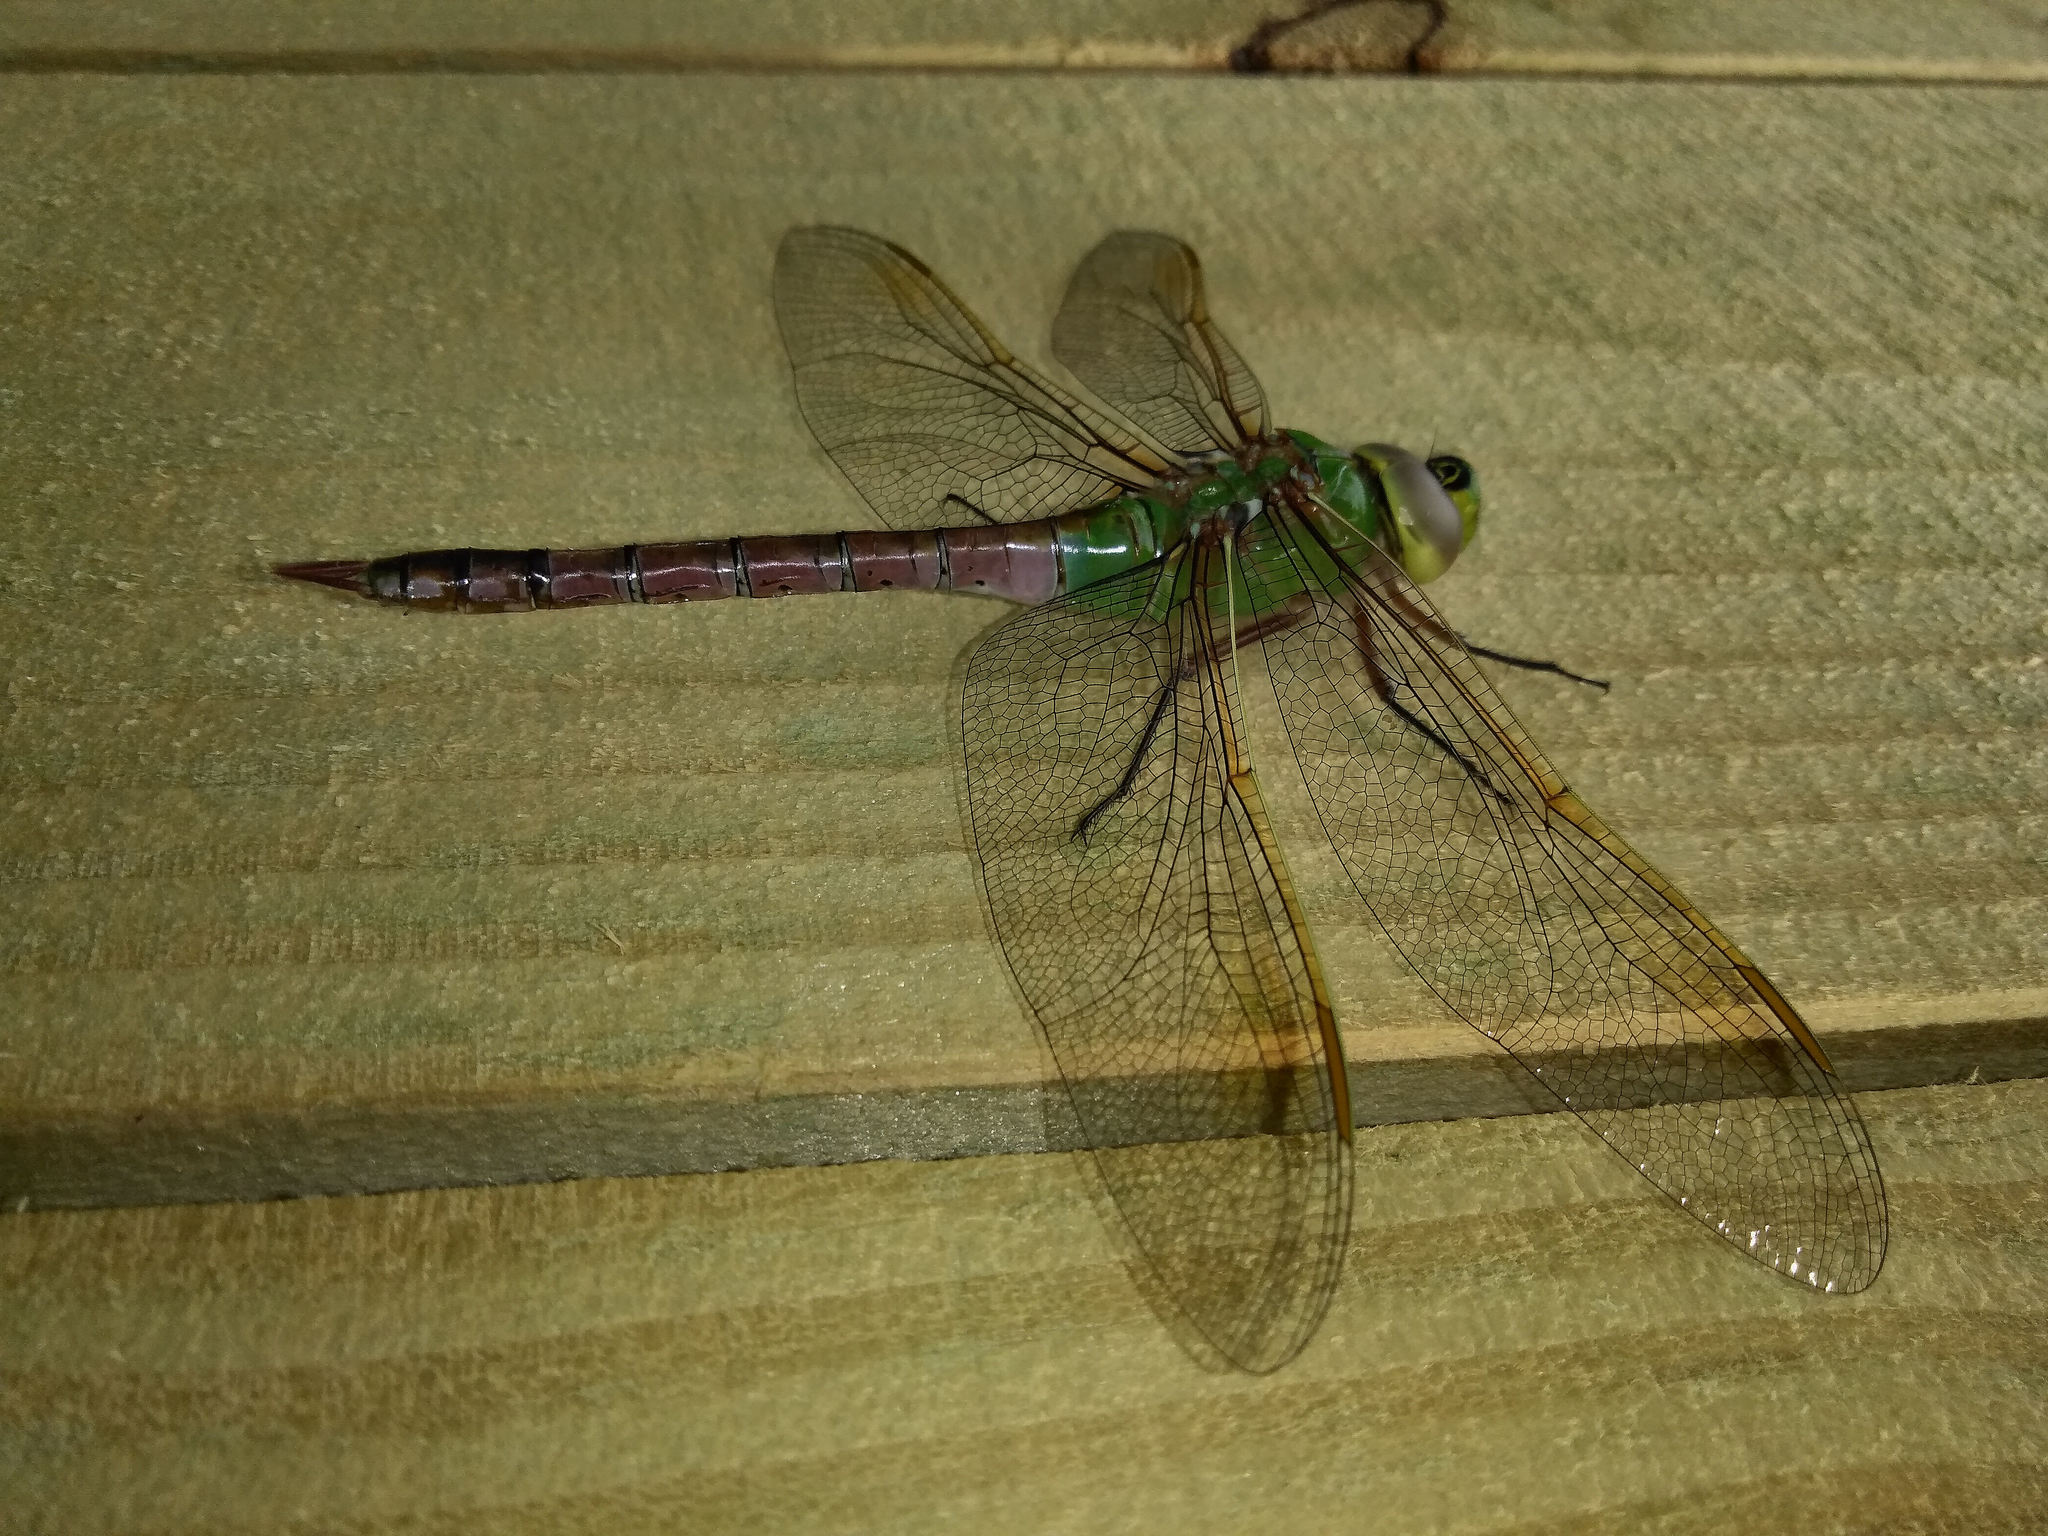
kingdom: Animalia
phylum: Arthropoda
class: Insecta
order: Odonata
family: Aeshnidae
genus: Anax
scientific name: Anax junius
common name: Common green darner
